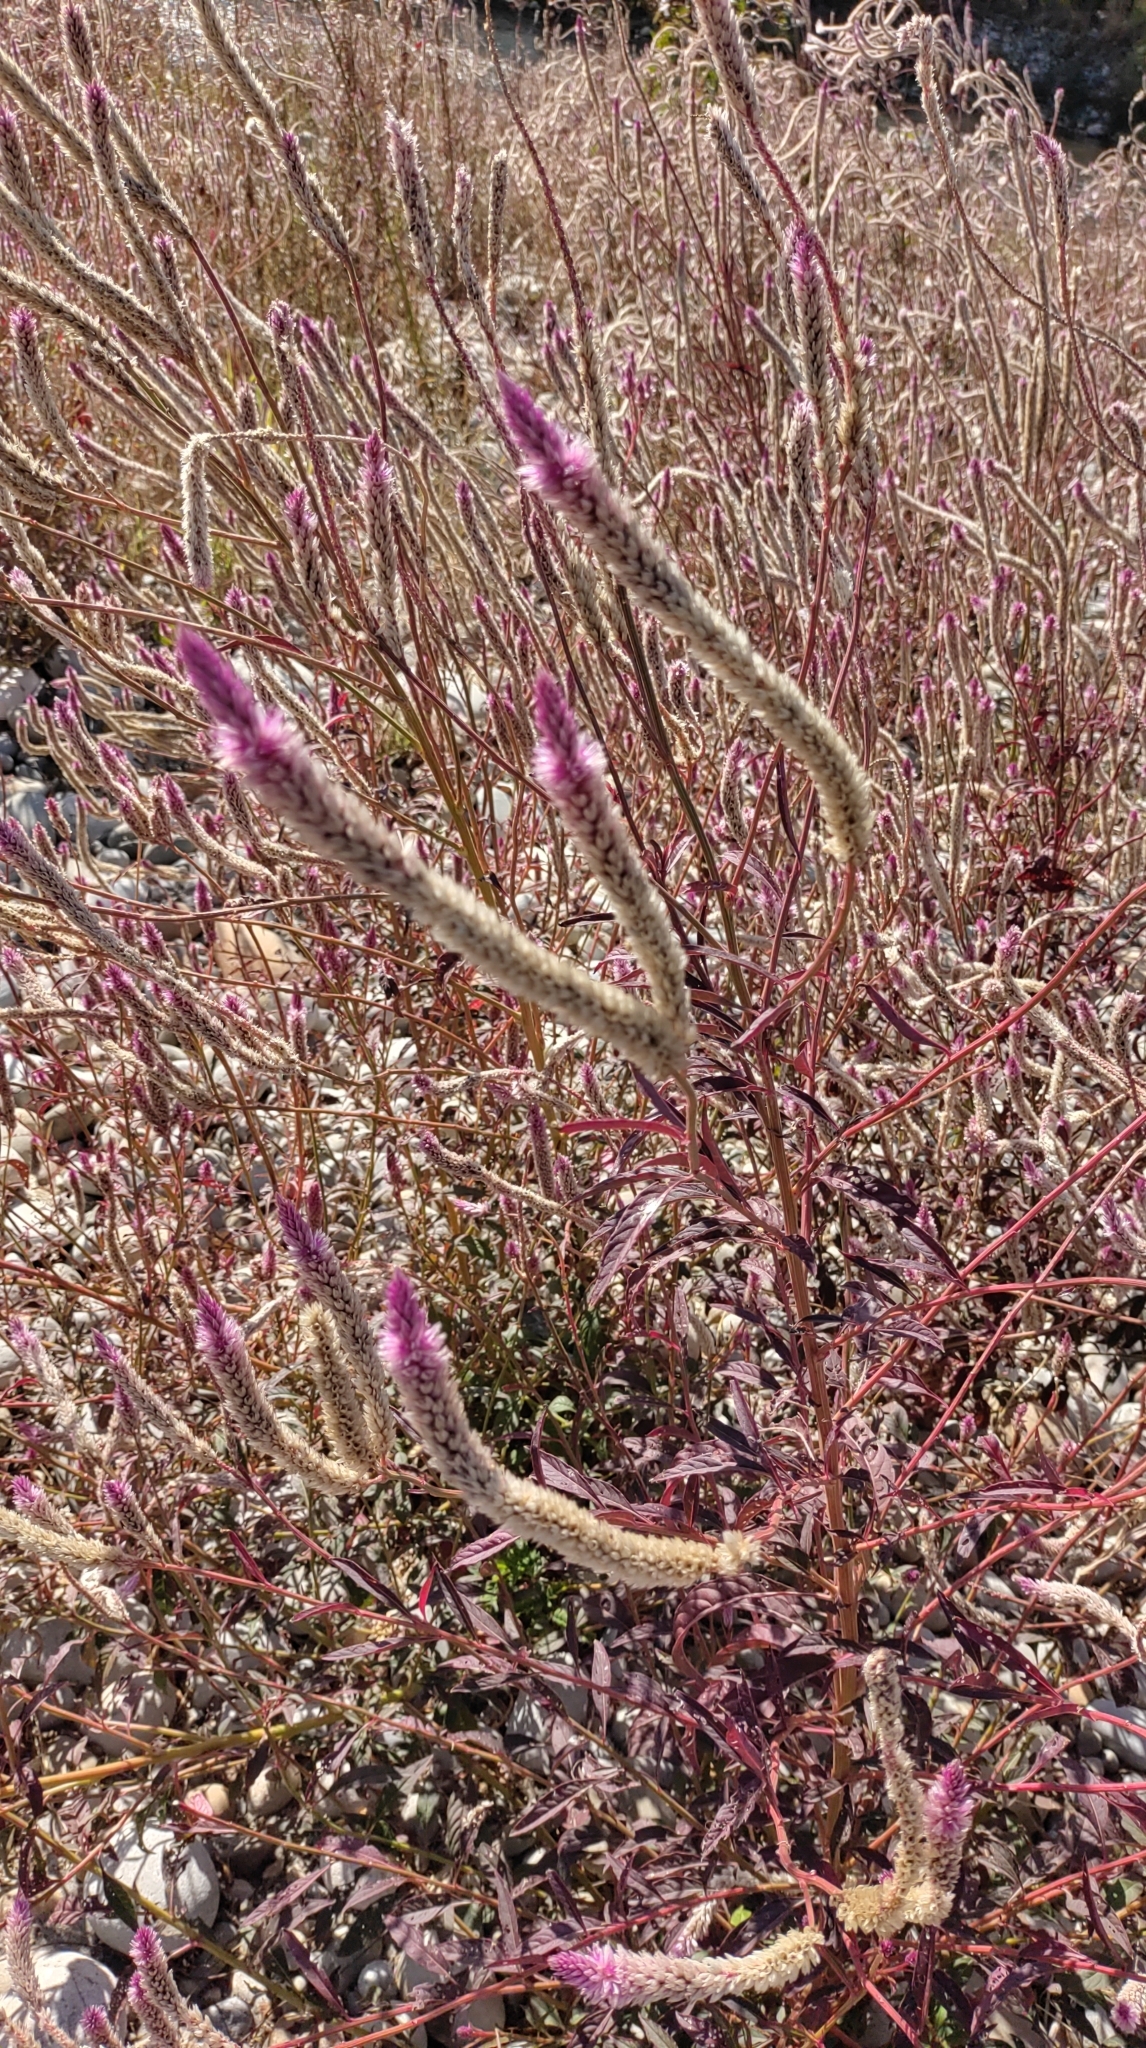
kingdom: Plantae
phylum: Tracheophyta
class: Magnoliopsida
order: Caryophyllales
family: Amaranthaceae
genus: Celosia
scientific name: Celosia argentea
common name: Feather cockscomb
